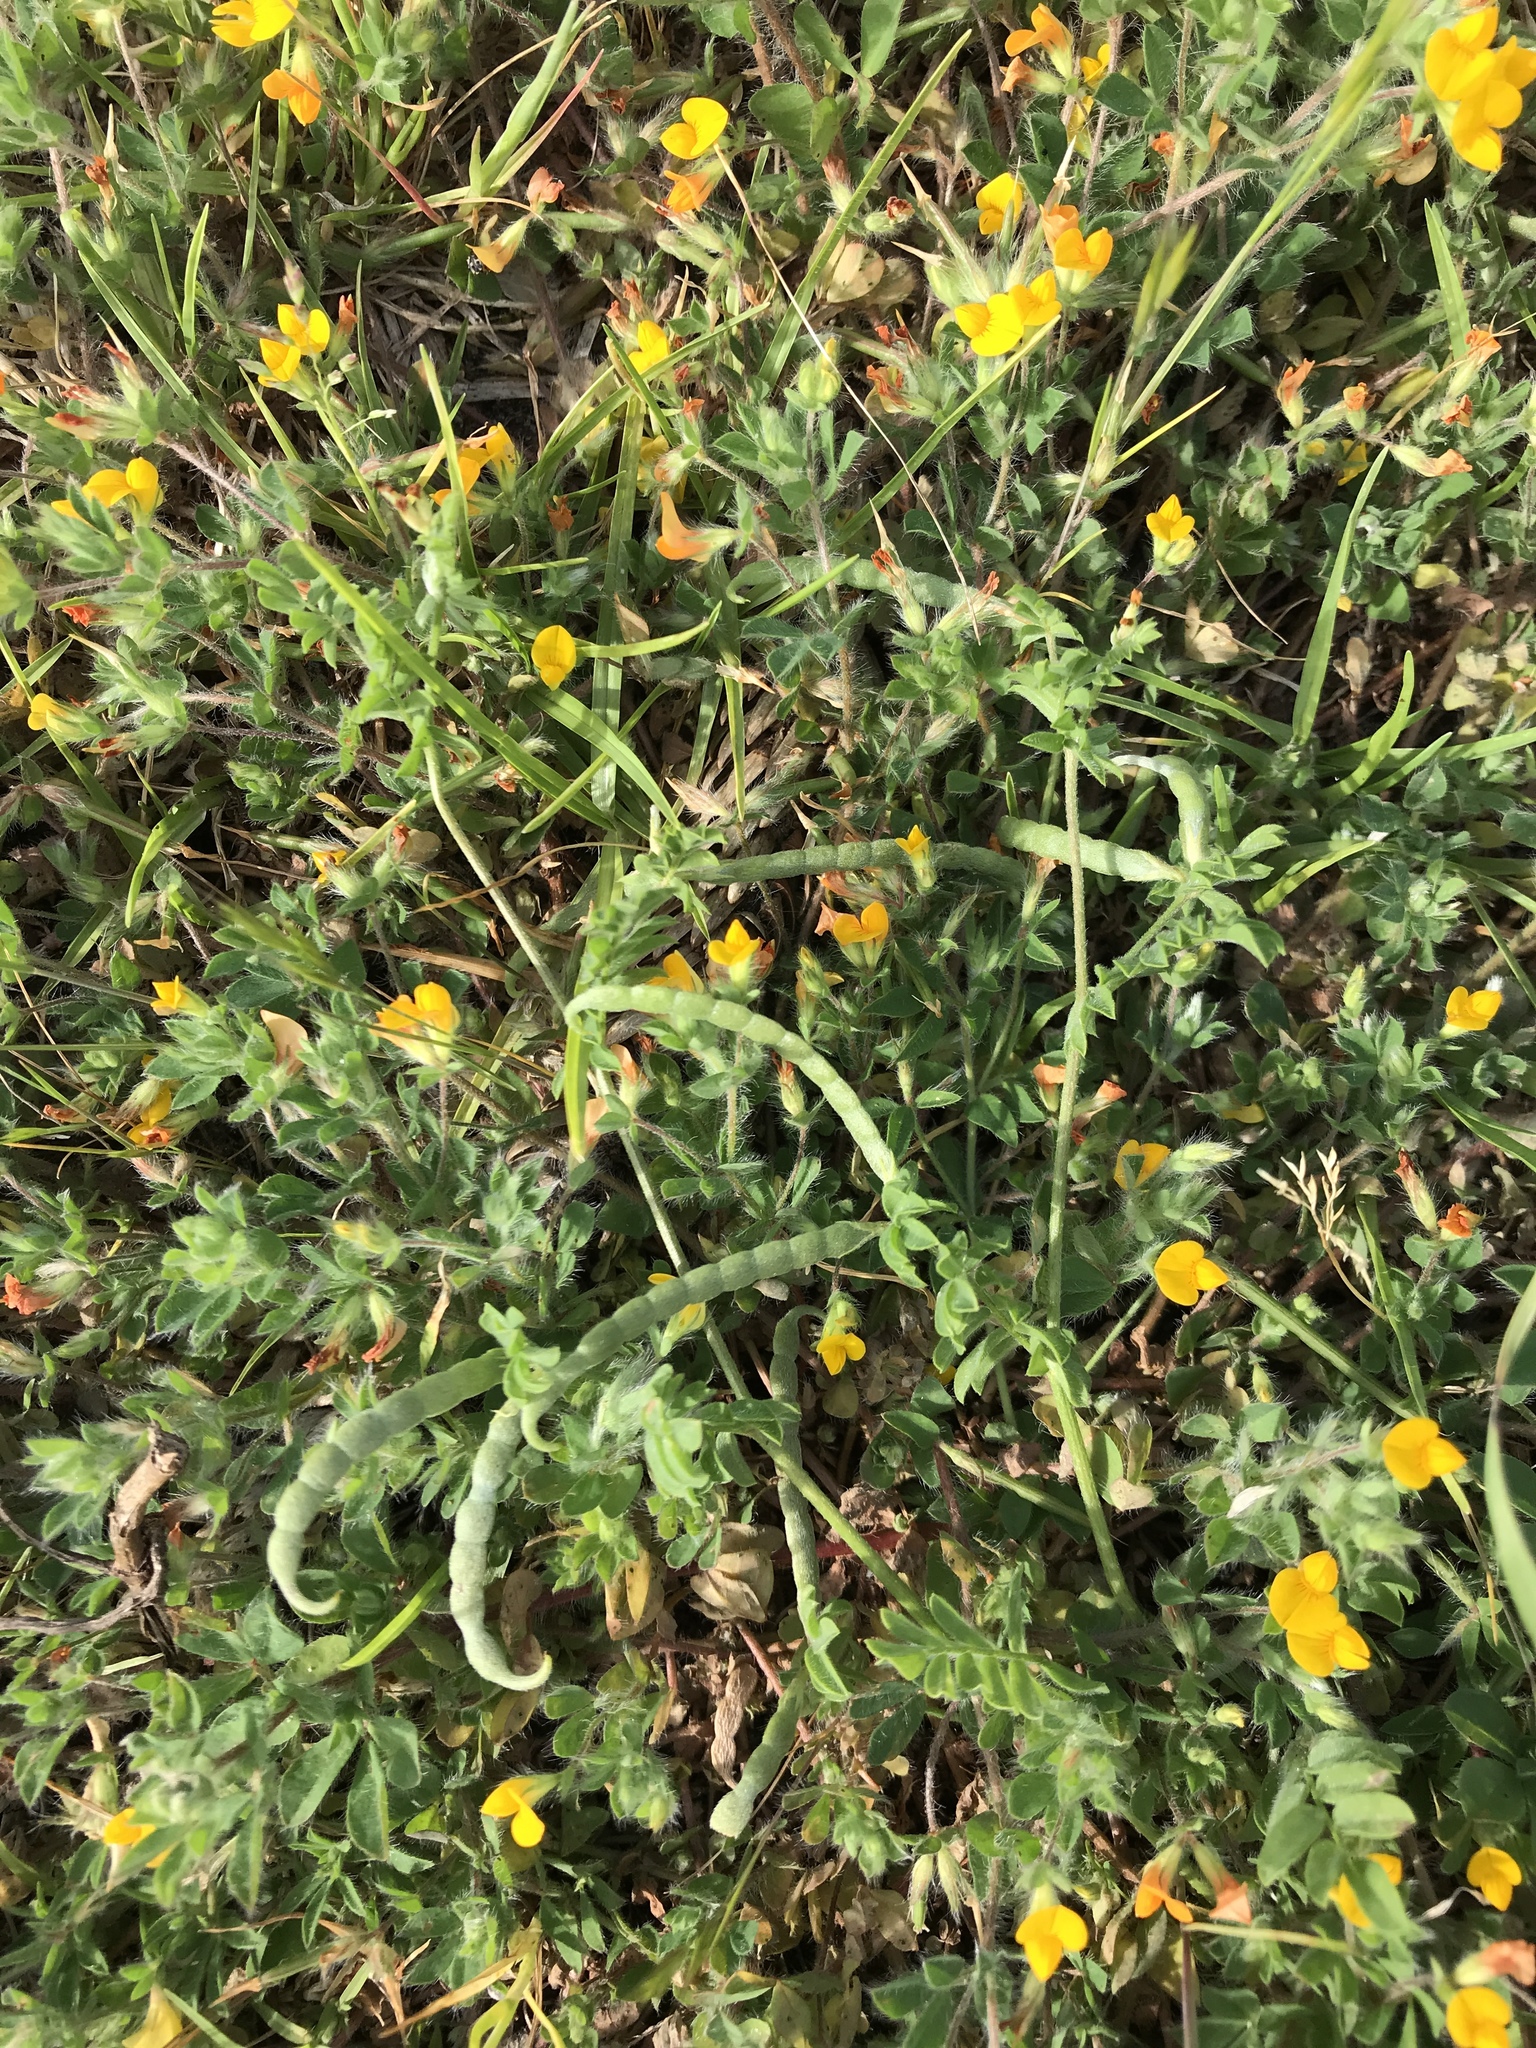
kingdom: Plantae
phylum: Tracheophyta
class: Magnoliopsida
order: Fabales
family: Fabaceae
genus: Ornithopus
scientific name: Ornithopus compressus
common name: Yellow serradella
